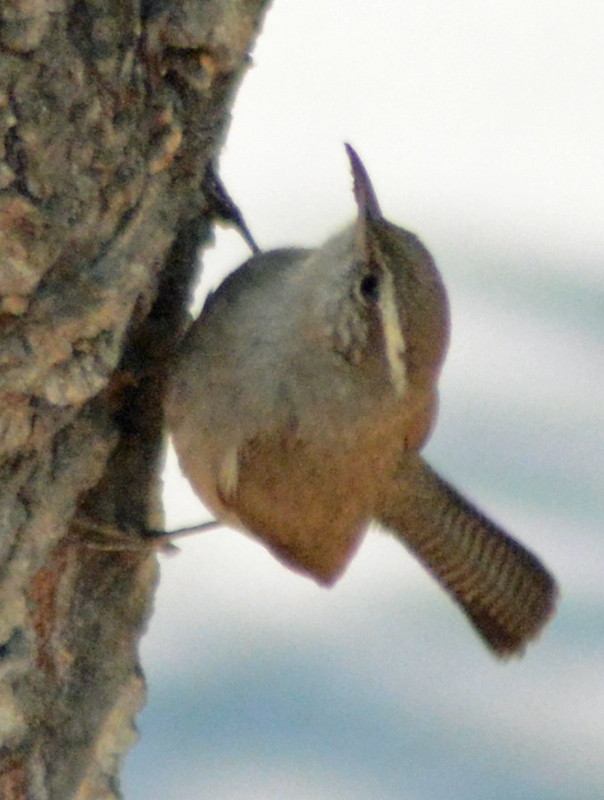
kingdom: Animalia
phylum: Chordata
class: Aves
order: Passeriformes
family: Troglodytidae
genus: Thryomanes
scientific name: Thryomanes bewickii
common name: Bewick's wren
